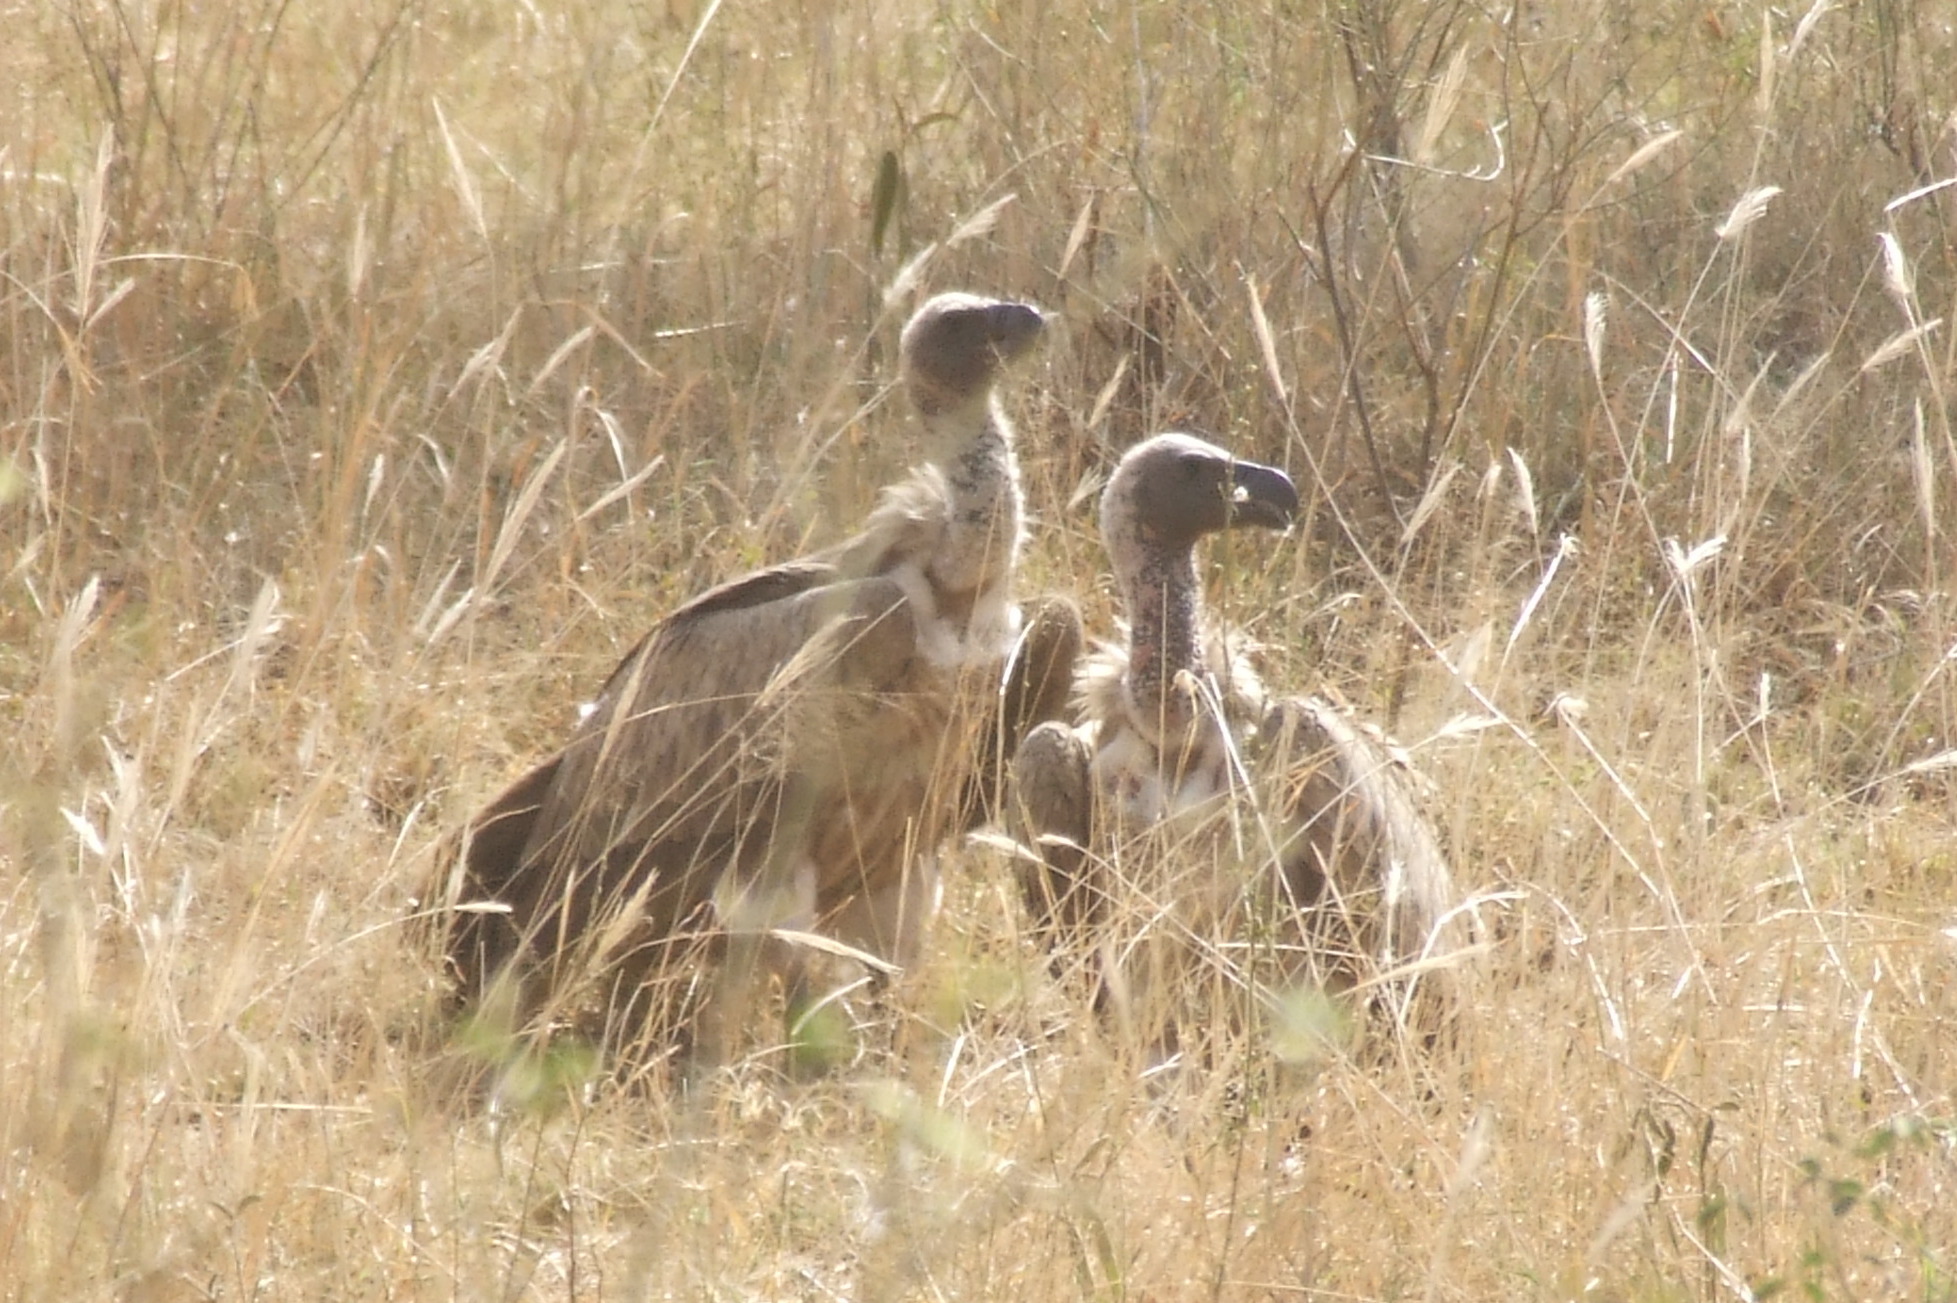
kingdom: Animalia
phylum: Chordata
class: Aves
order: Accipitriformes
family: Accipitridae
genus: Gyps
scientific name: Gyps africanus
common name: White-backed vulture
